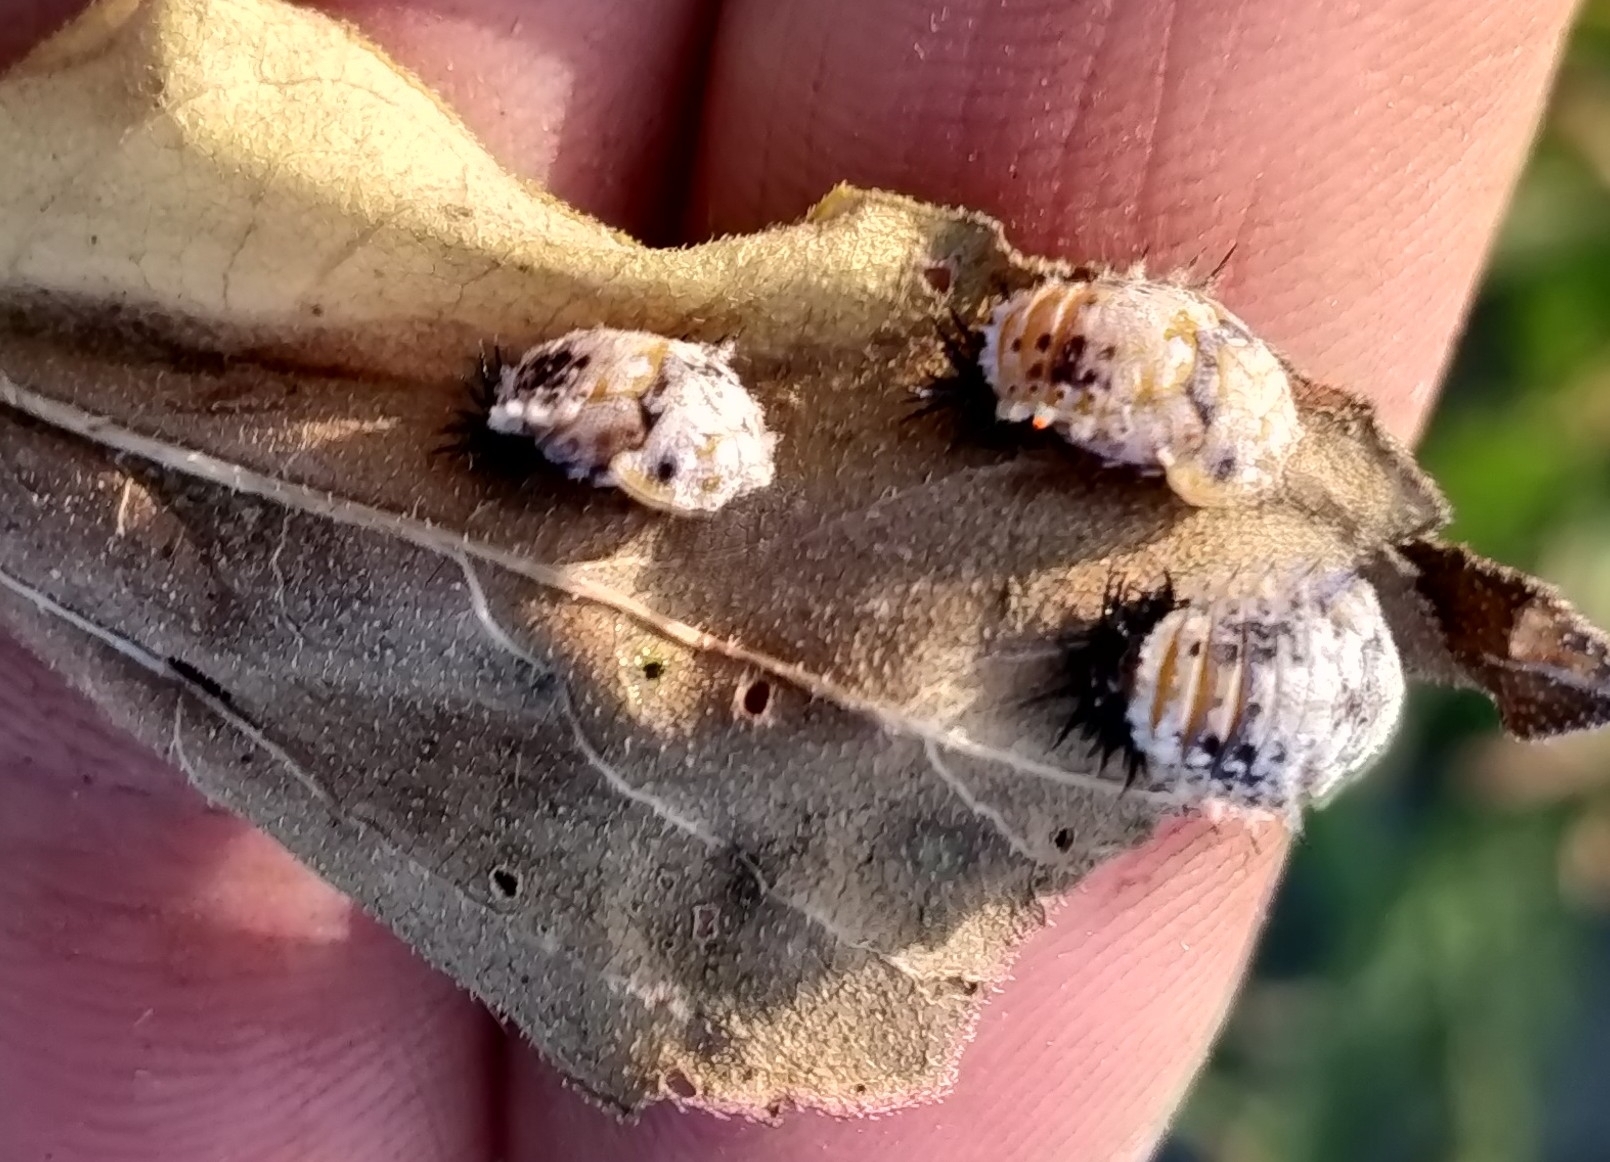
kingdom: Animalia
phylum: Arthropoda
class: Insecta
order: Coleoptera
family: Chrysomelidae
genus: Chelymorpha
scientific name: Chelymorpha cassidea
